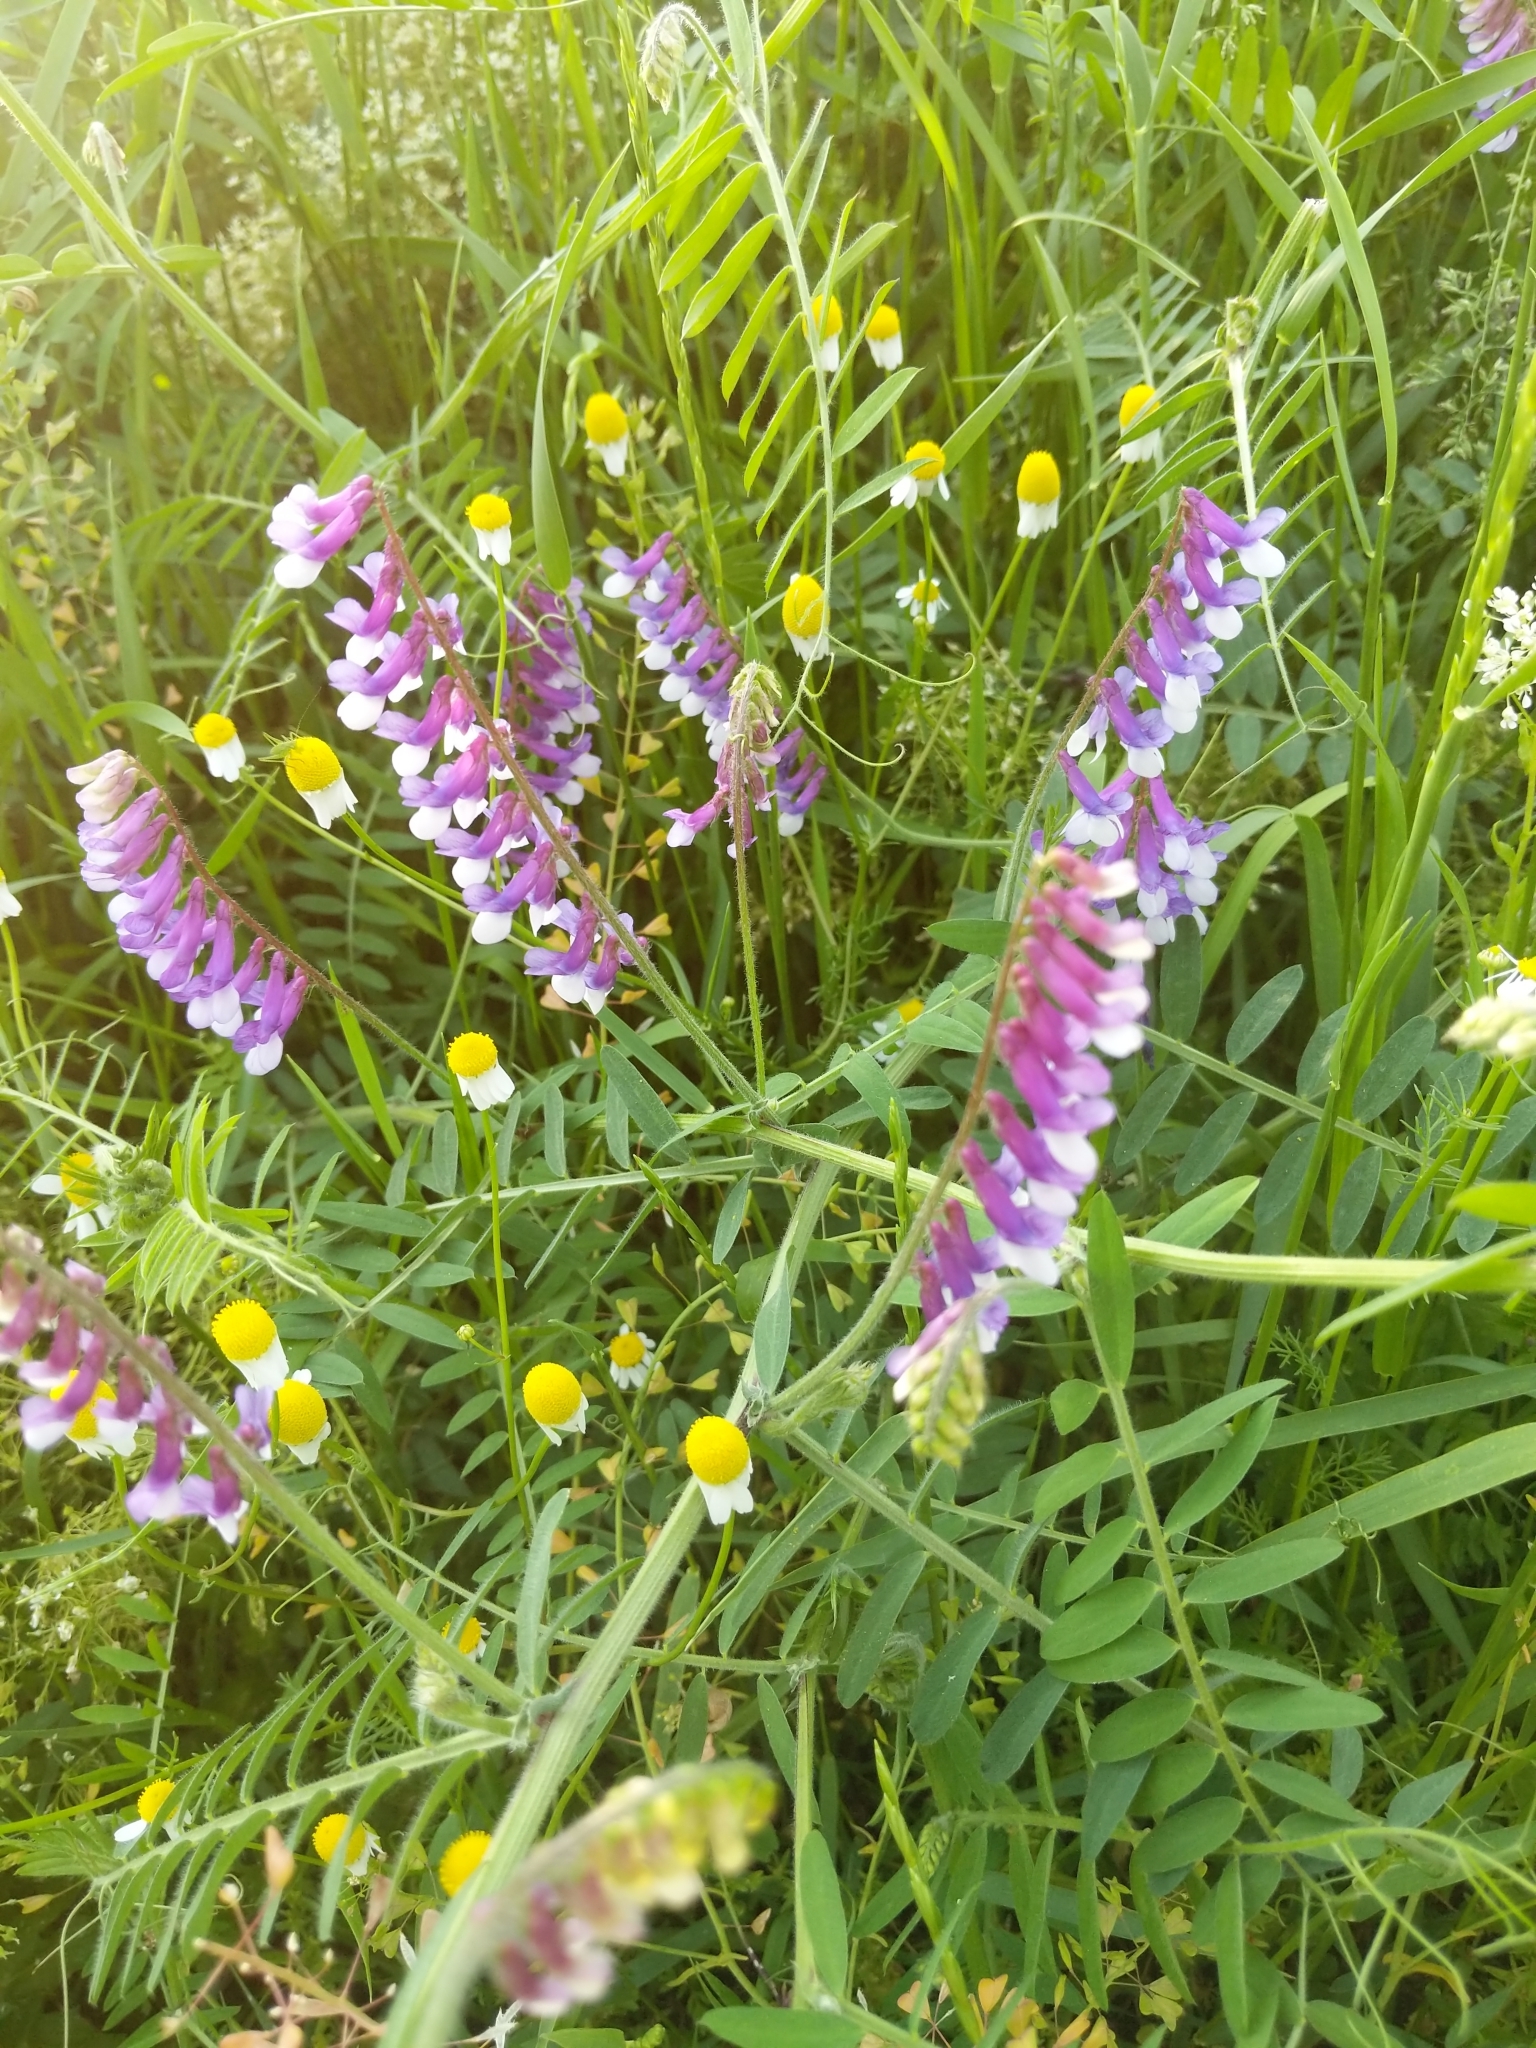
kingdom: Plantae
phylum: Tracheophyta
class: Magnoliopsida
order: Fabales
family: Fabaceae
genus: Vicia
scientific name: Vicia villosa
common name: Fodder vetch
